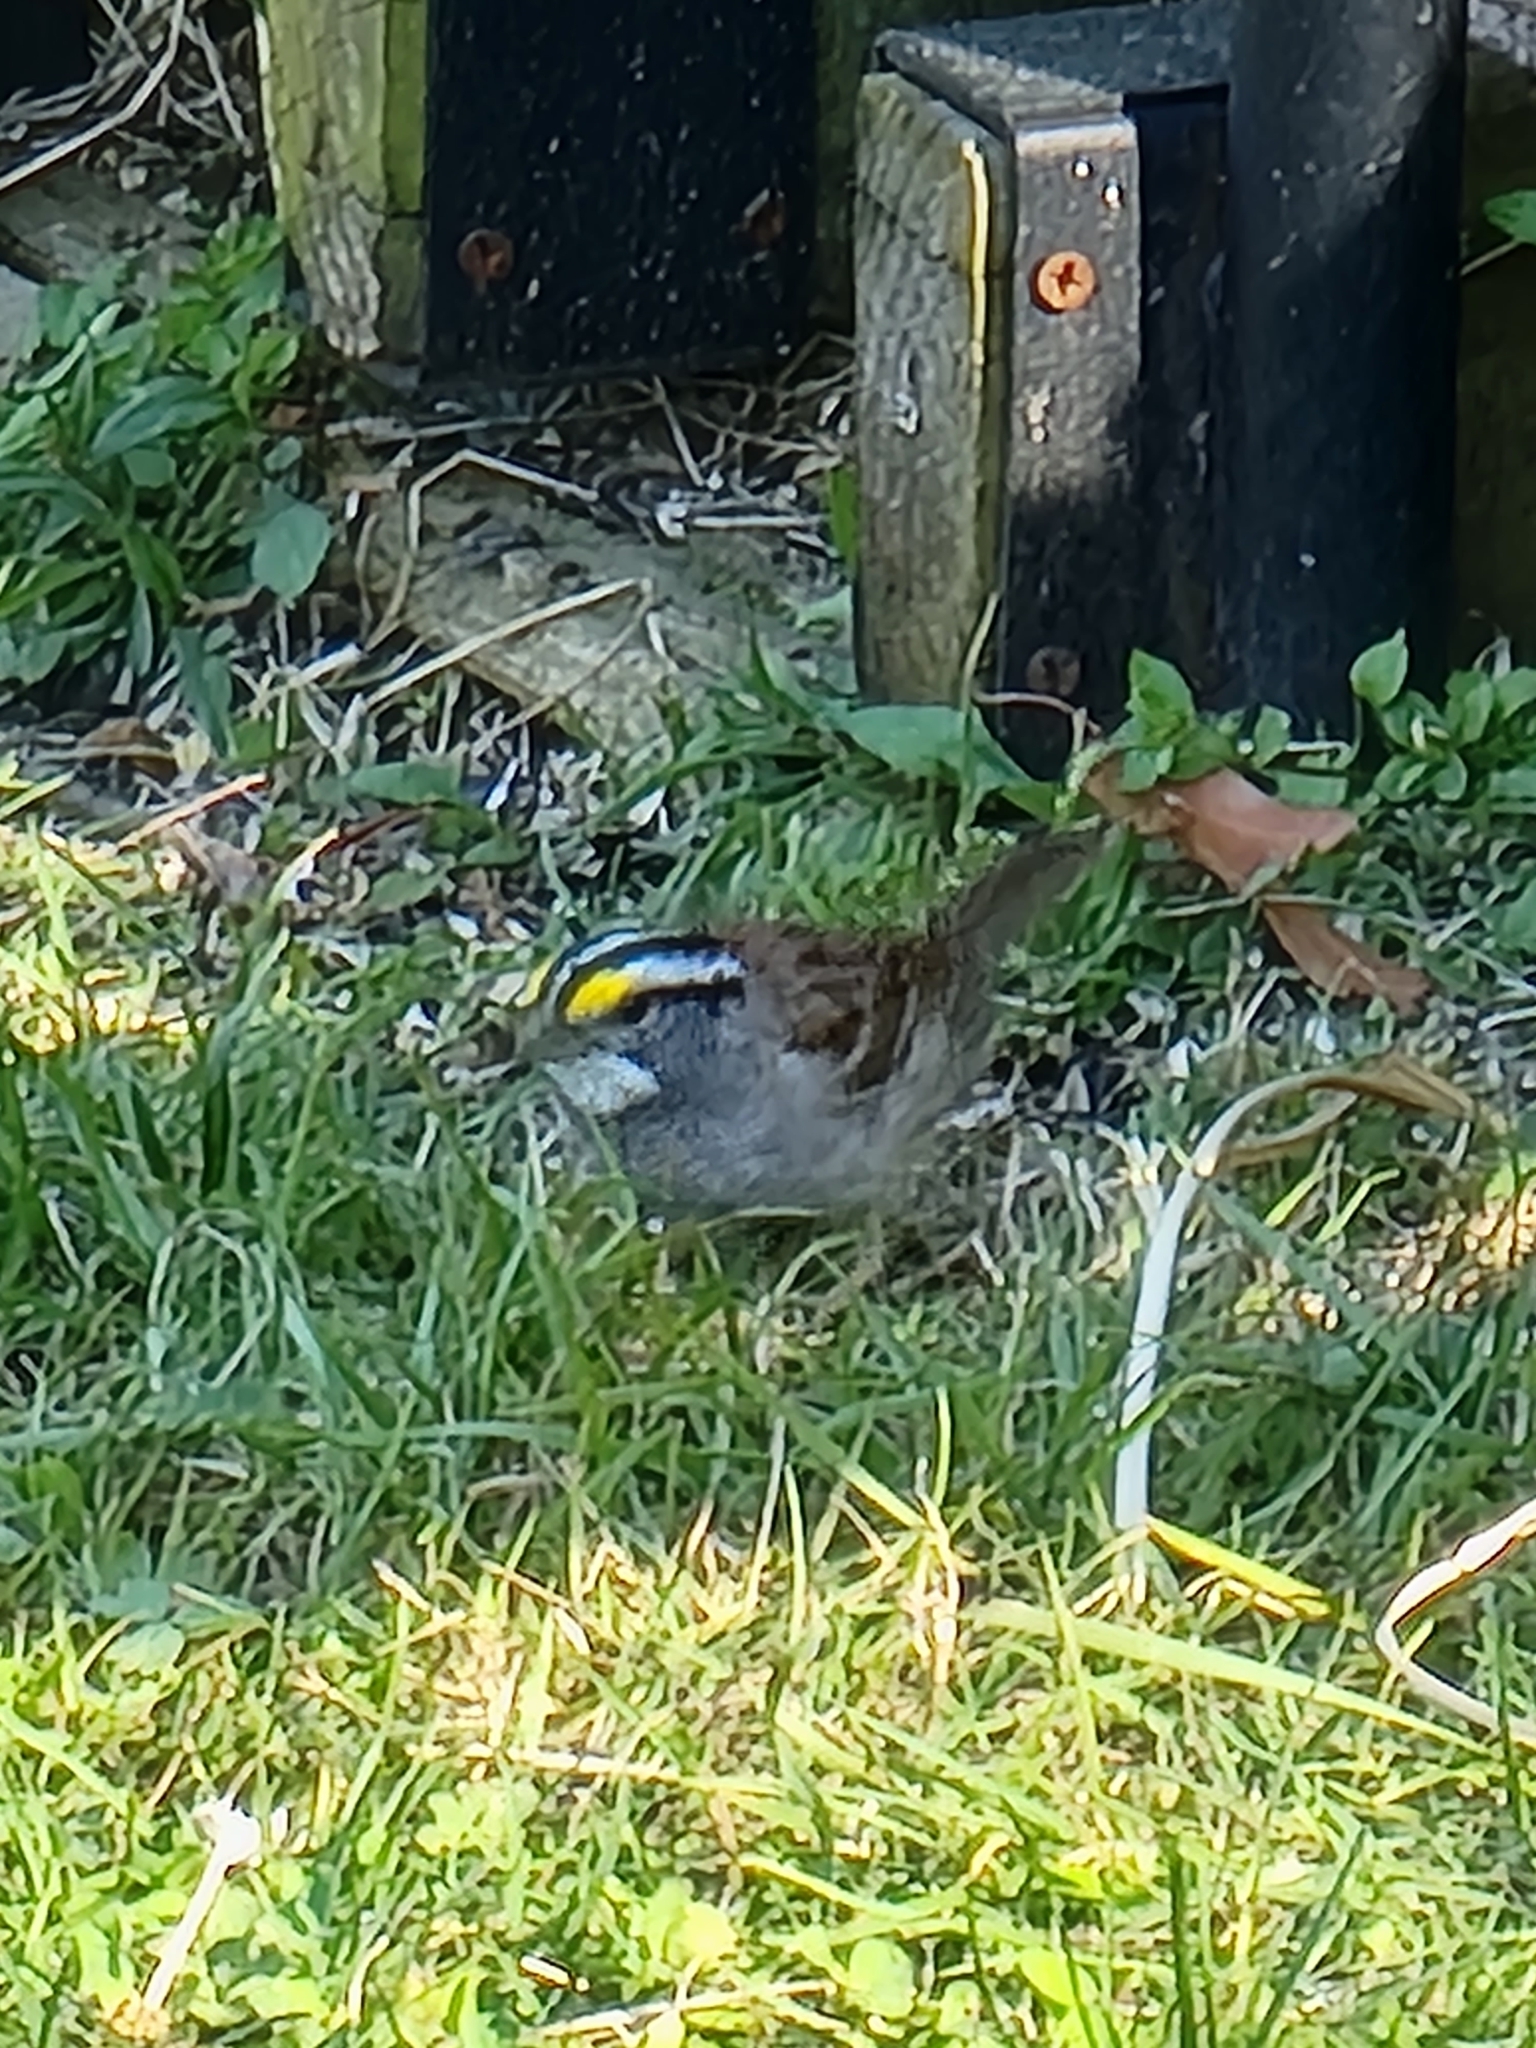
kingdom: Animalia
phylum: Chordata
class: Aves
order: Passeriformes
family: Passerellidae
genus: Zonotrichia
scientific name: Zonotrichia albicollis
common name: White-throated sparrow
